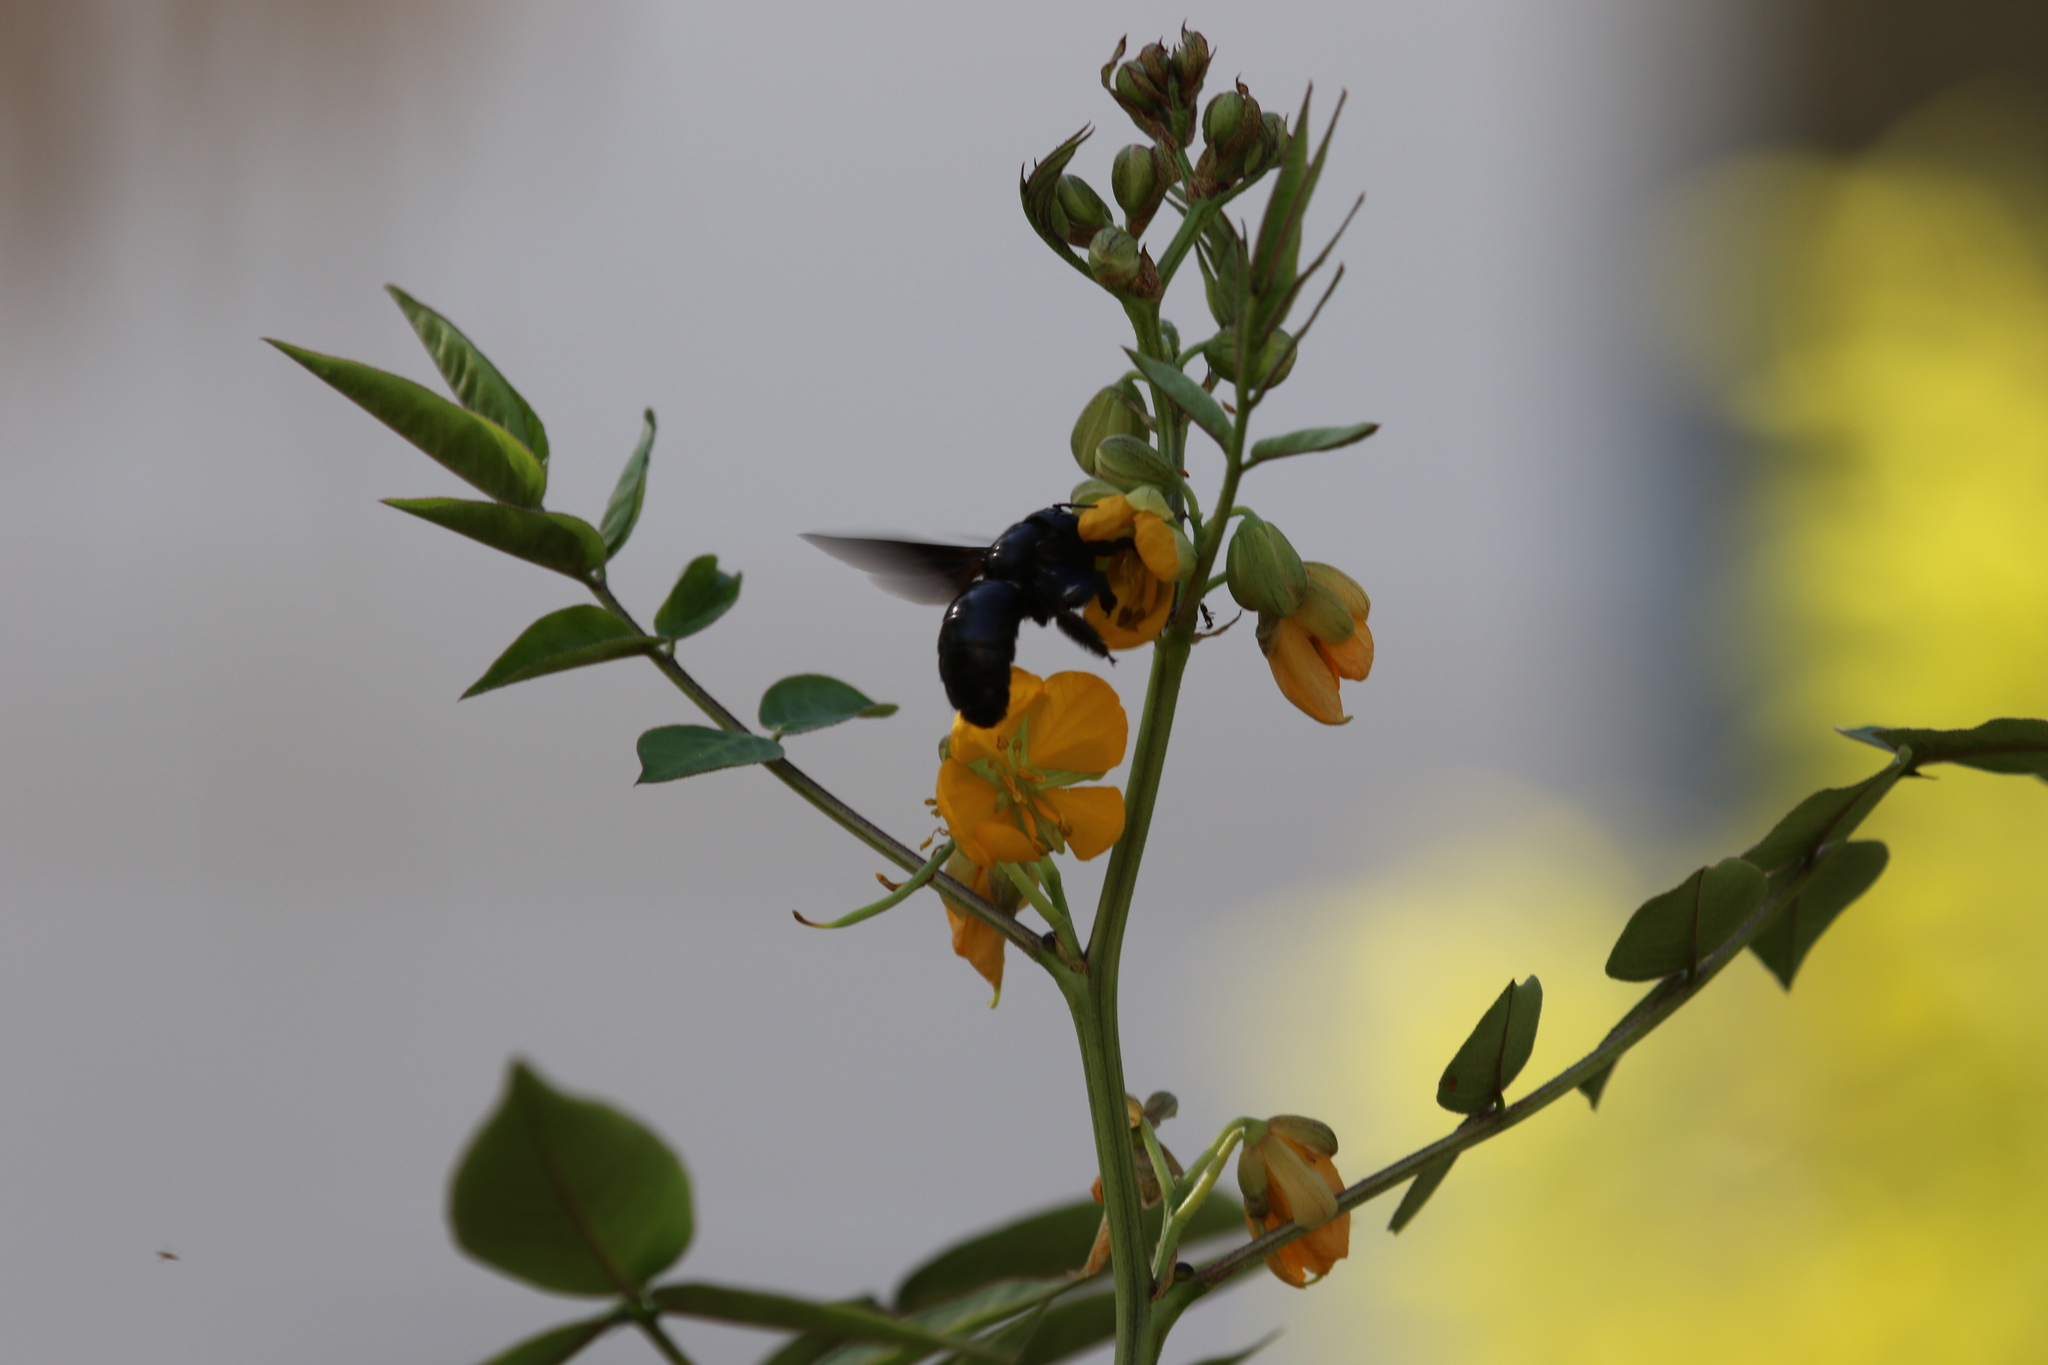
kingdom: Animalia
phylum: Arthropoda
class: Insecta
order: Hymenoptera
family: Apidae
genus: Xylocopa
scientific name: Xylocopa sulcatipes
